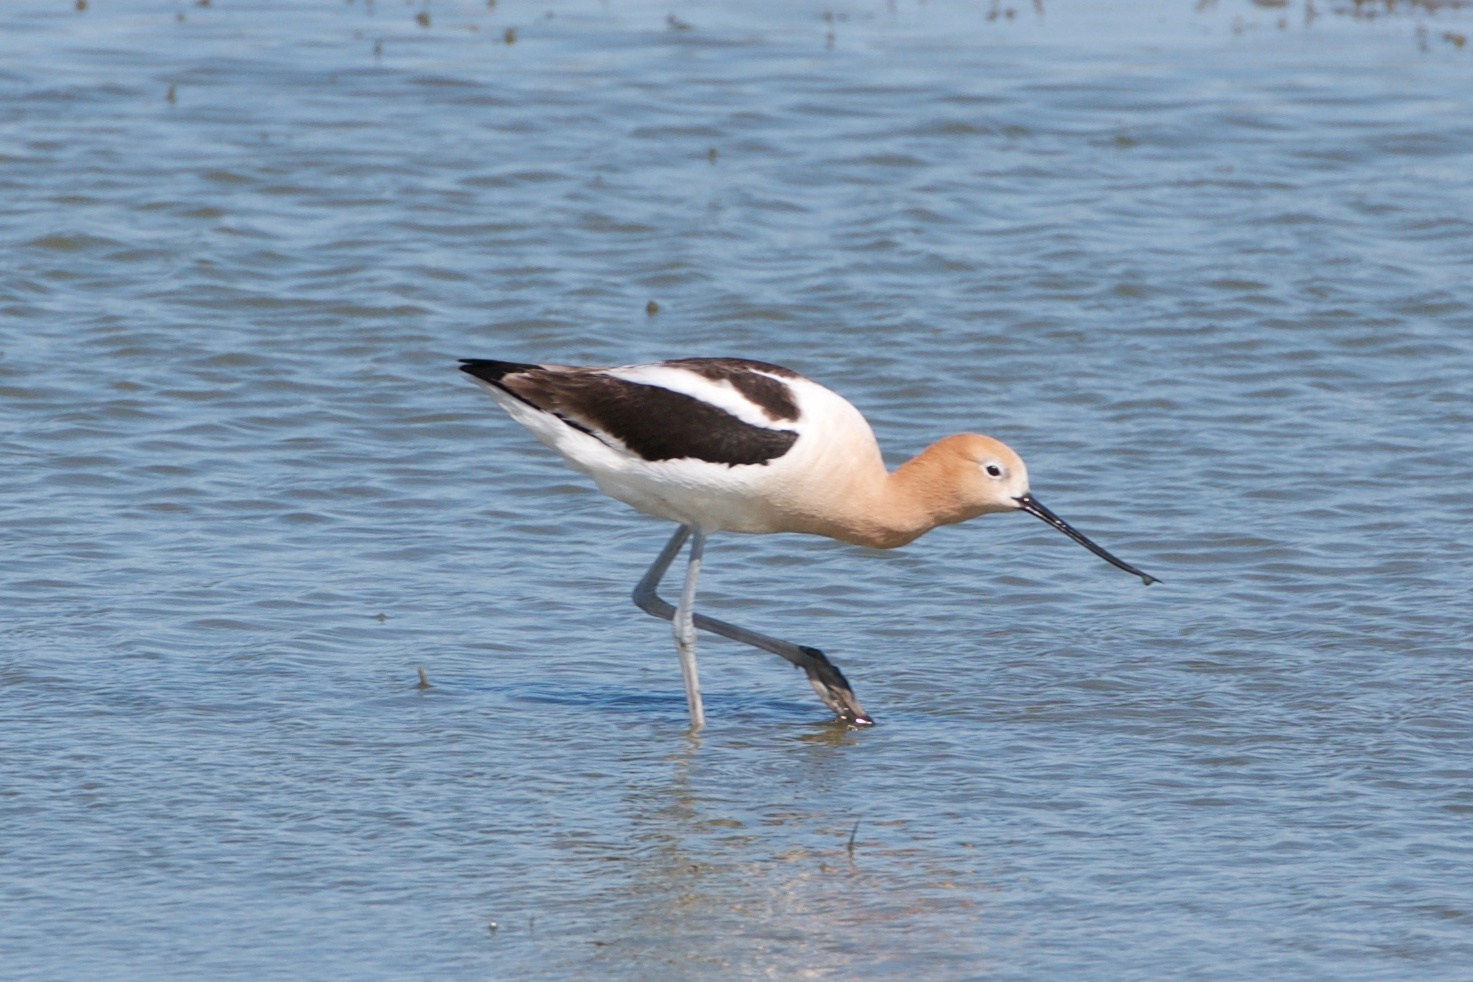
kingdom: Animalia
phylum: Chordata
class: Aves
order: Charadriiformes
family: Recurvirostridae
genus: Recurvirostra
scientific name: Recurvirostra americana
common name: American avocet
